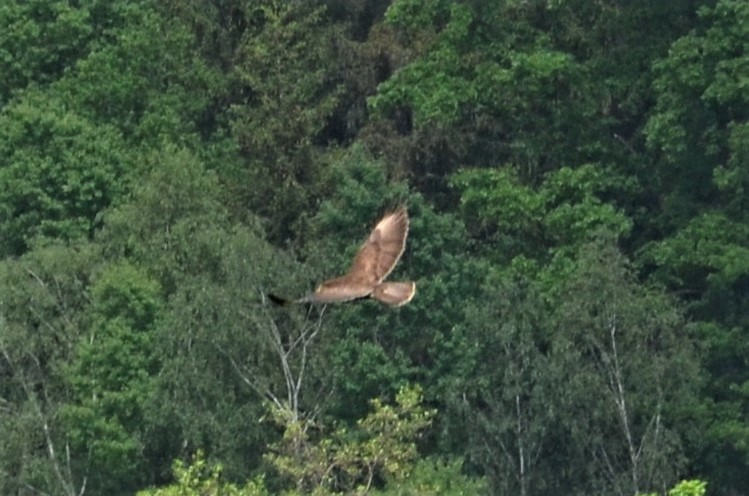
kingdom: Animalia
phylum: Chordata
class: Aves
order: Accipitriformes
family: Accipitridae
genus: Buteo
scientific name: Buteo buteo
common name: Common buzzard
